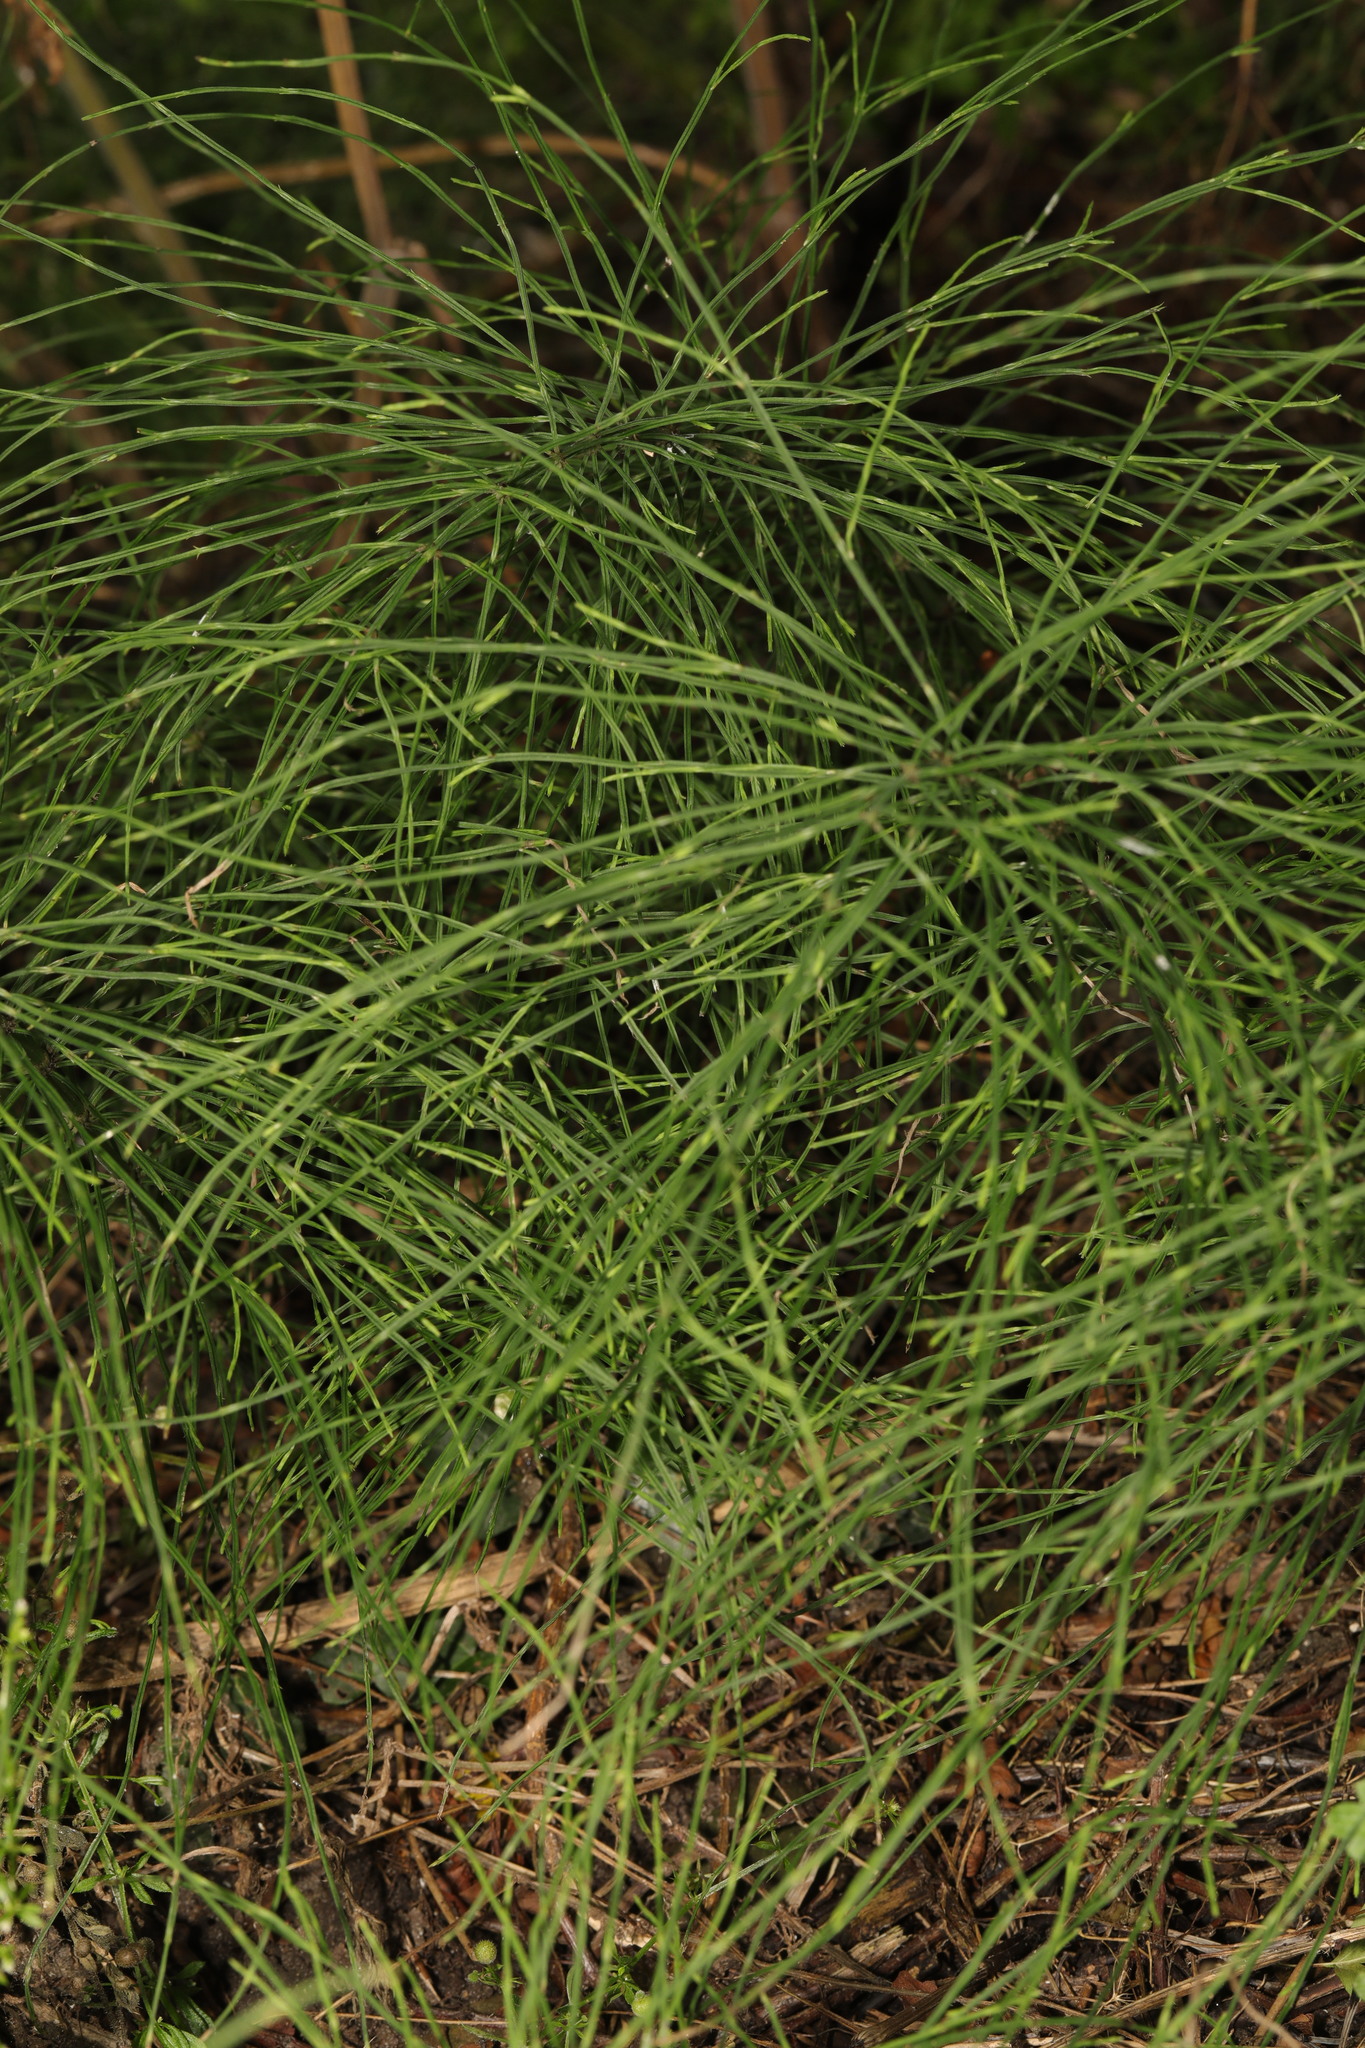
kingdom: Plantae
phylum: Tracheophyta
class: Polypodiopsida
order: Equisetales
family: Equisetaceae
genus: Equisetum
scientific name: Equisetum arvense
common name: Field horsetail
